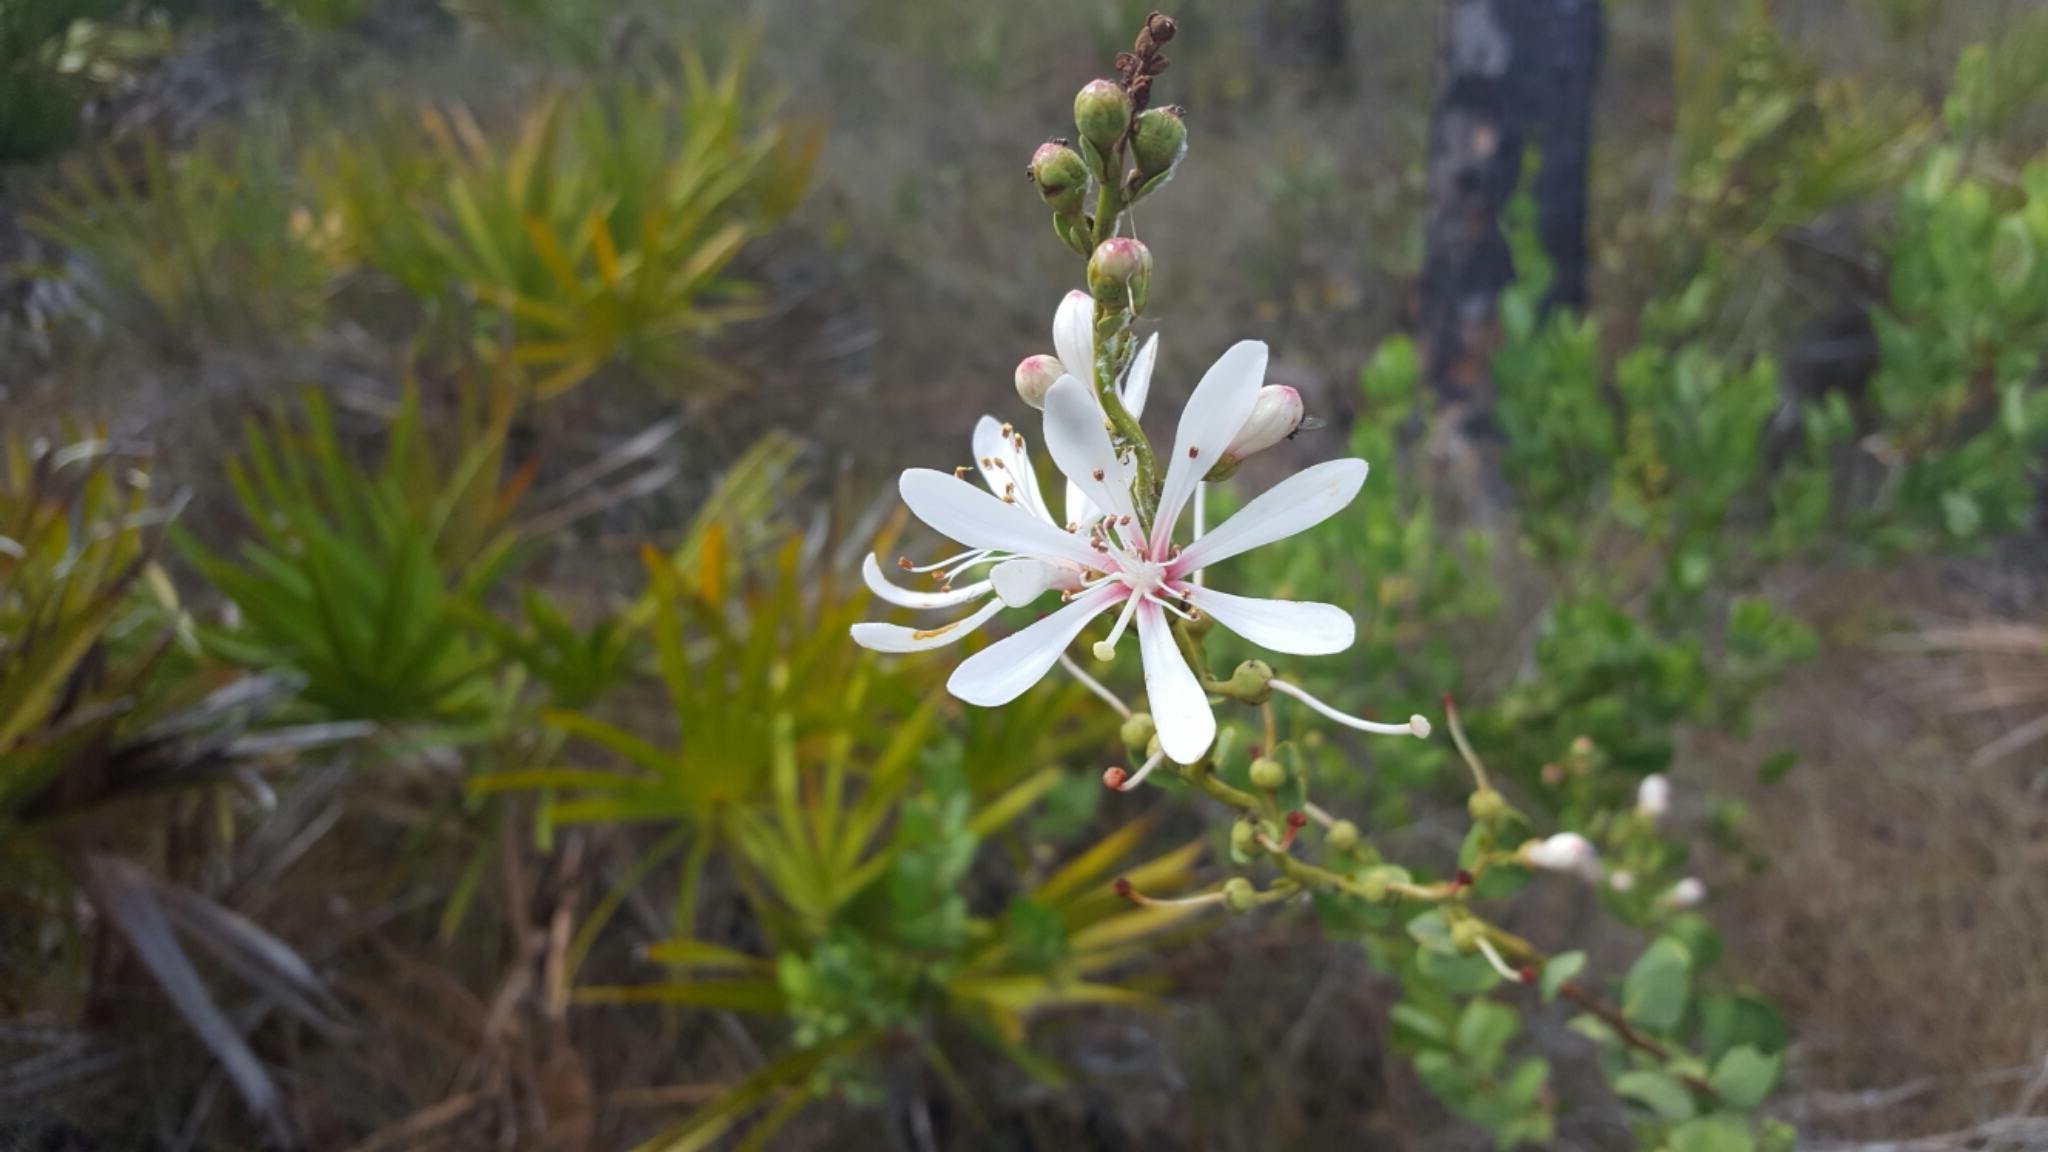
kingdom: Plantae
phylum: Tracheophyta
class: Magnoliopsida
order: Ericales
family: Ericaceae
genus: Bejaria
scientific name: Bejaria racemosa
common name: Tarflower
